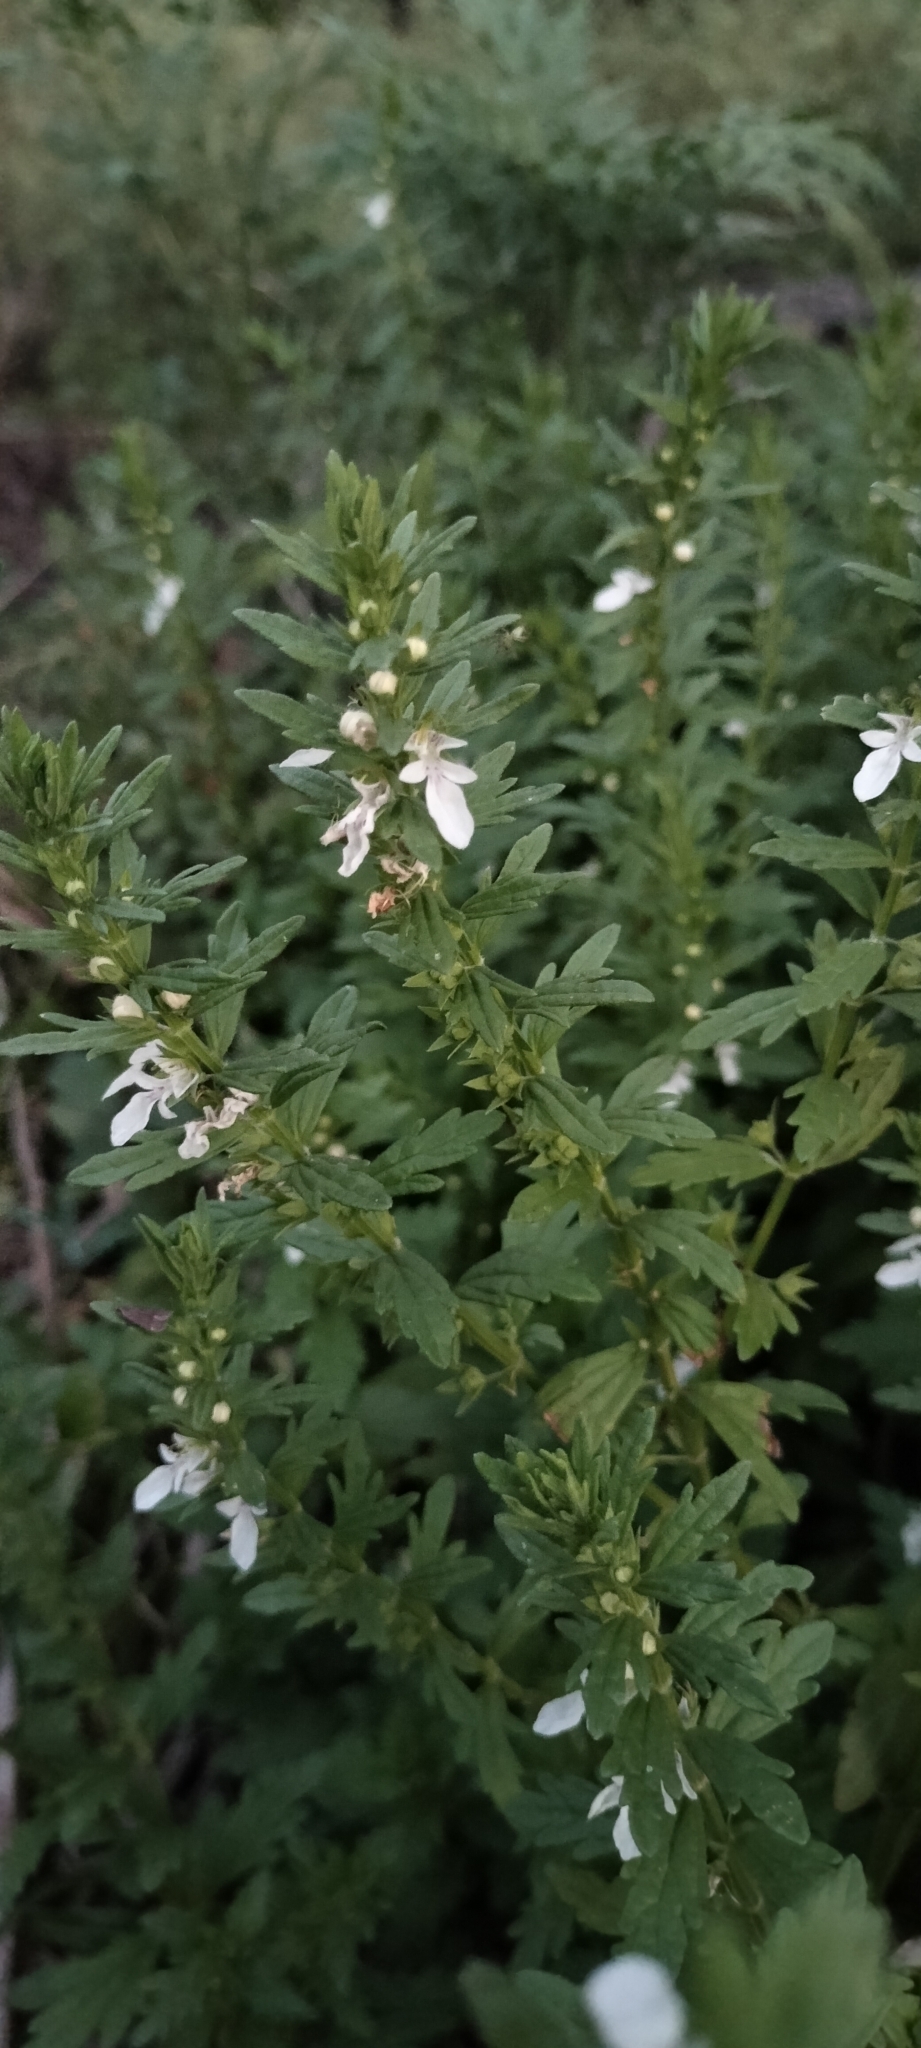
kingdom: Plantae
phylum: Tracheophyta
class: Magnoliopsida
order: Lamiales
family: Lamiaceae
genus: Teucrium
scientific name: Teucrium cubense
